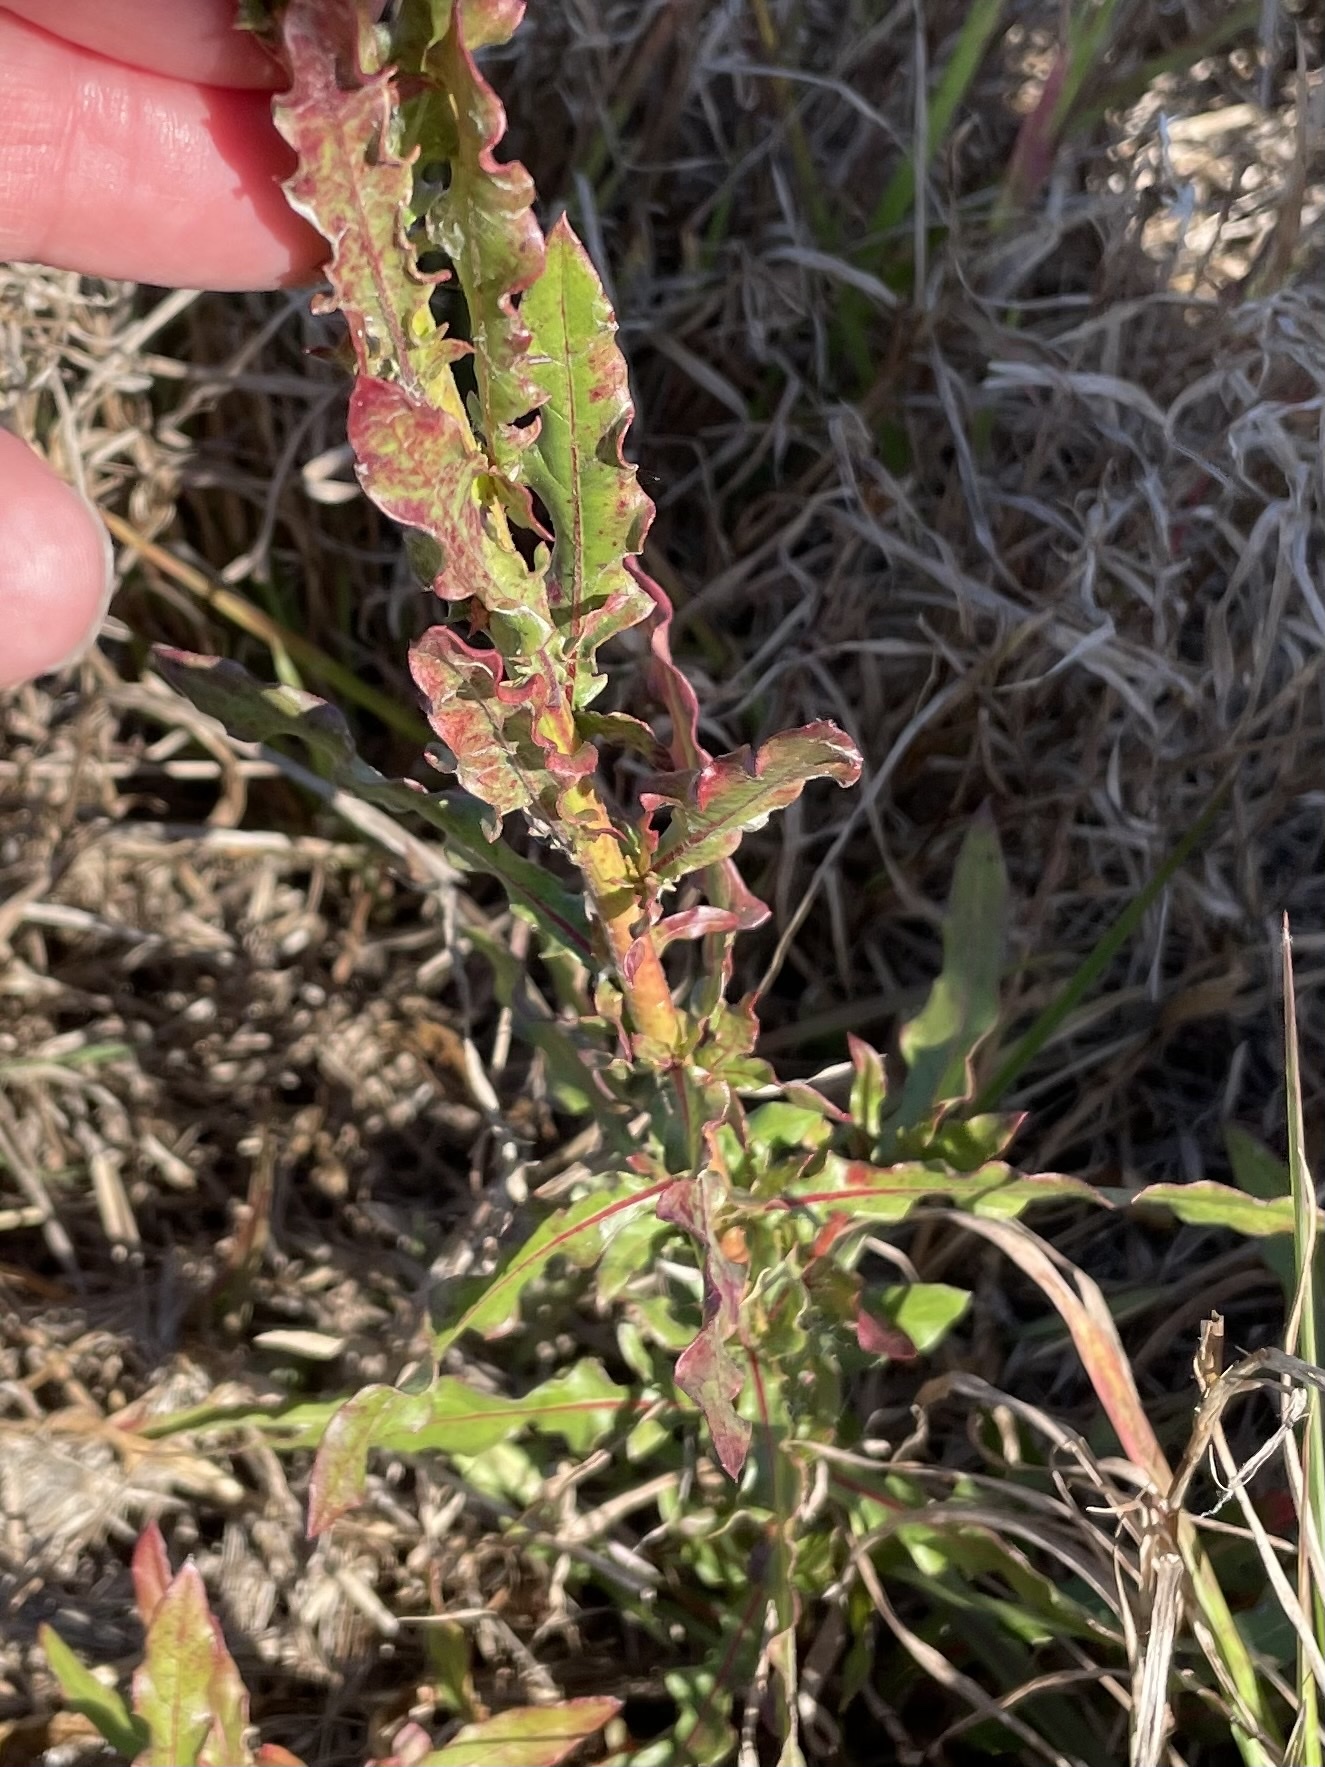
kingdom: Plantae
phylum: Tracheophyta
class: Magnoliopsida
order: Myrtales
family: Onagraceae
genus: Oenothera
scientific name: Oenothera simulans
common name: Southern beeblossom
